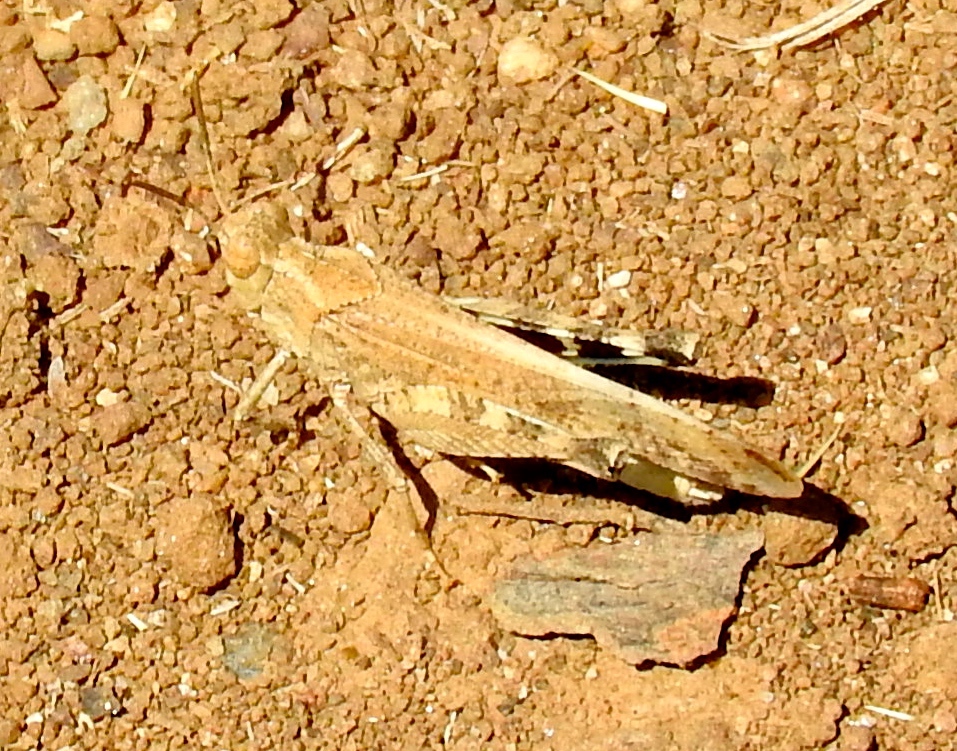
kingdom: Animalia
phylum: Arthropoda
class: Insecta
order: Orthoptera
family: Acrididae
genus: Lactista
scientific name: Lactista elota
